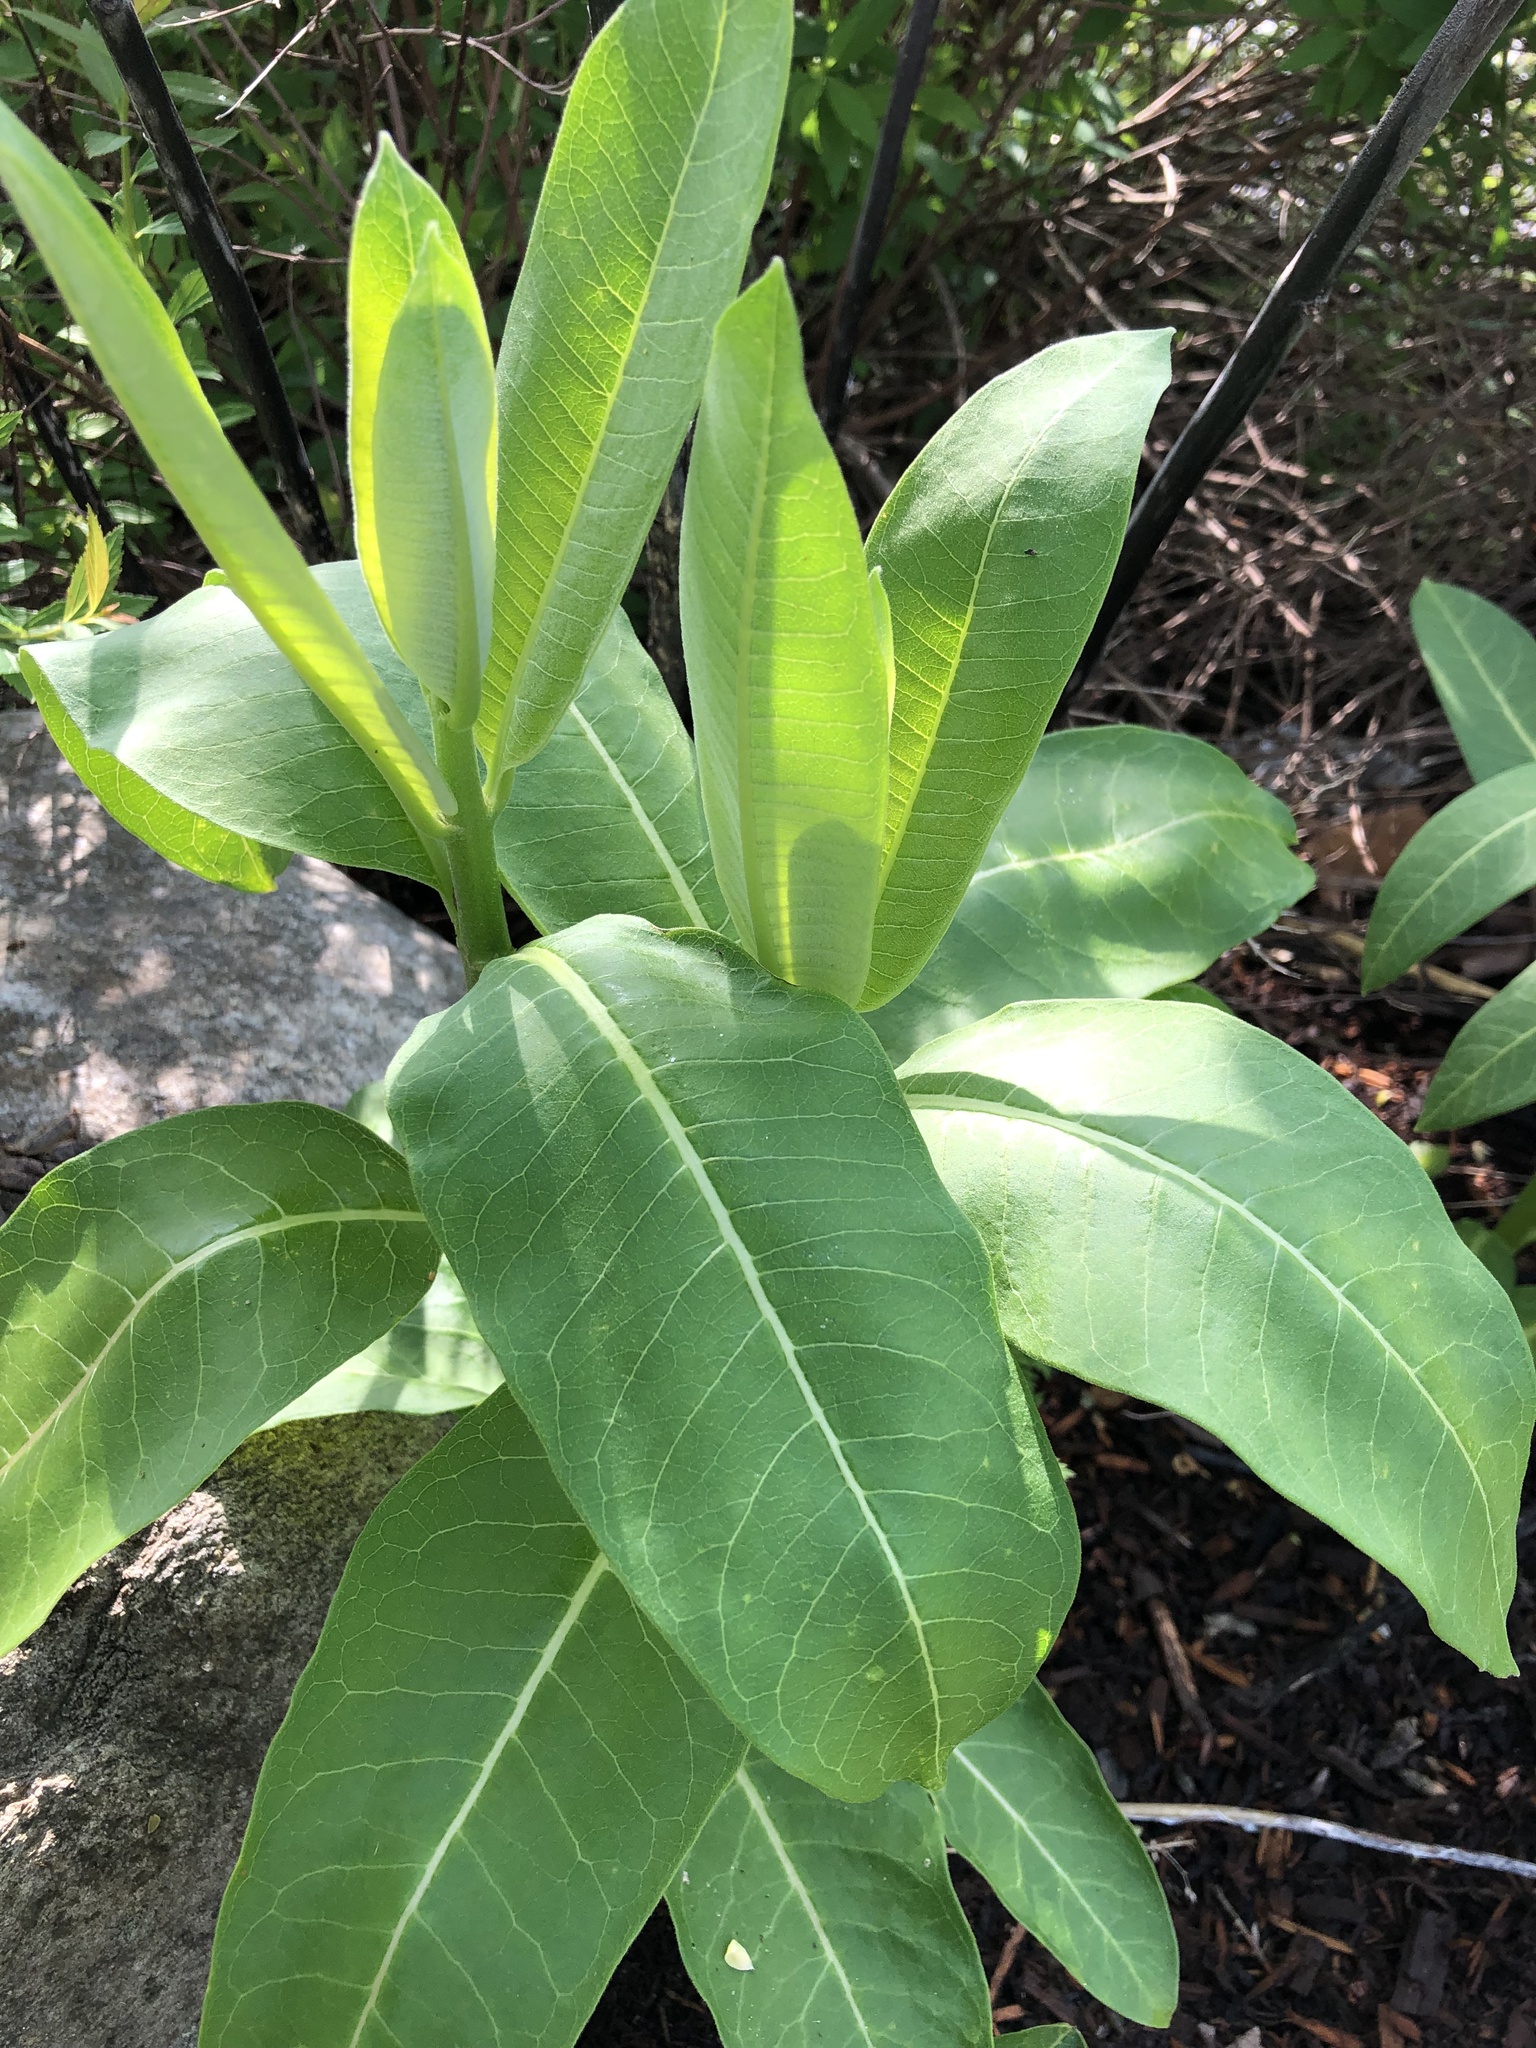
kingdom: Plantae
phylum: Tracheophyta
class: Magnoliopsida
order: Gentianales
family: Apocynaceae
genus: Asclepias
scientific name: Asclepias syriaca
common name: Common milkweed
